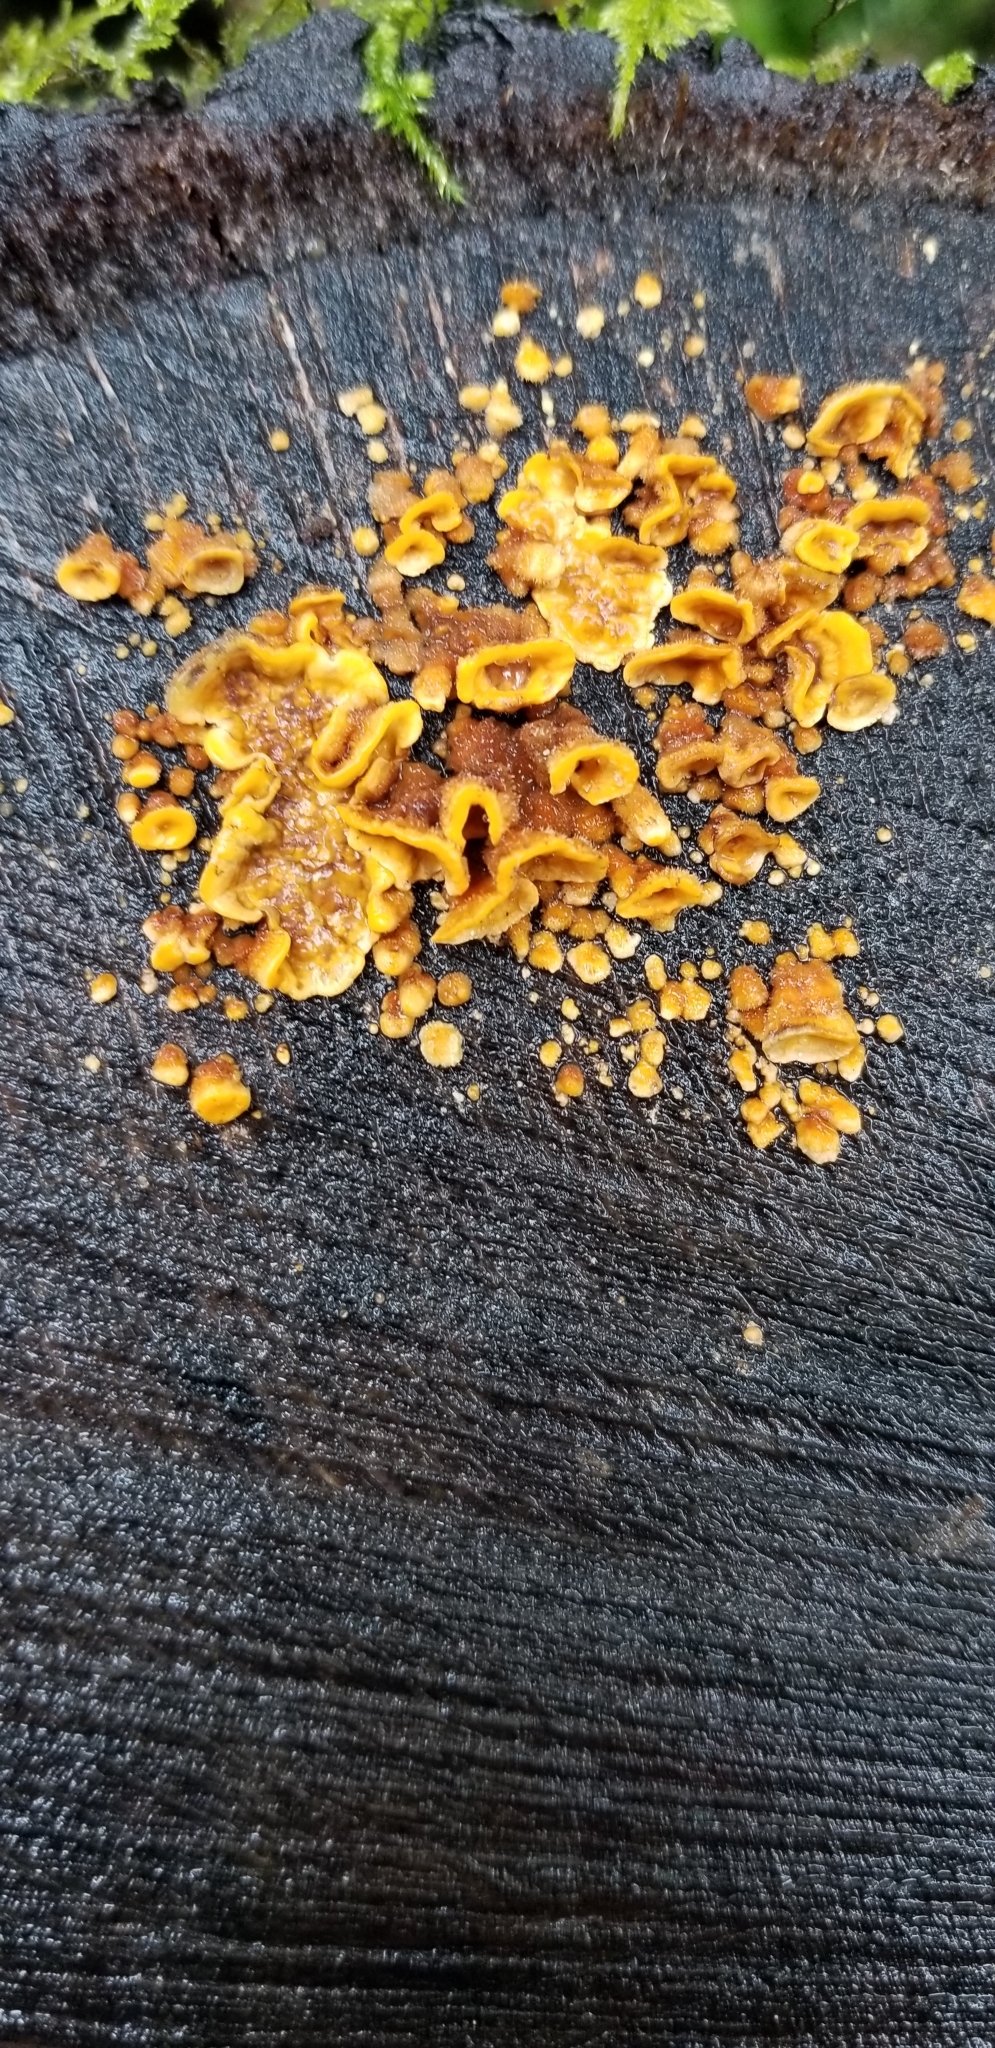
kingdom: Fungi
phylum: Basidiomycota
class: Agaricomycetes
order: Russulales
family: Stereaceae
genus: Stereum
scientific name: Stereum hirsutum
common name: Hairy curtain crust
